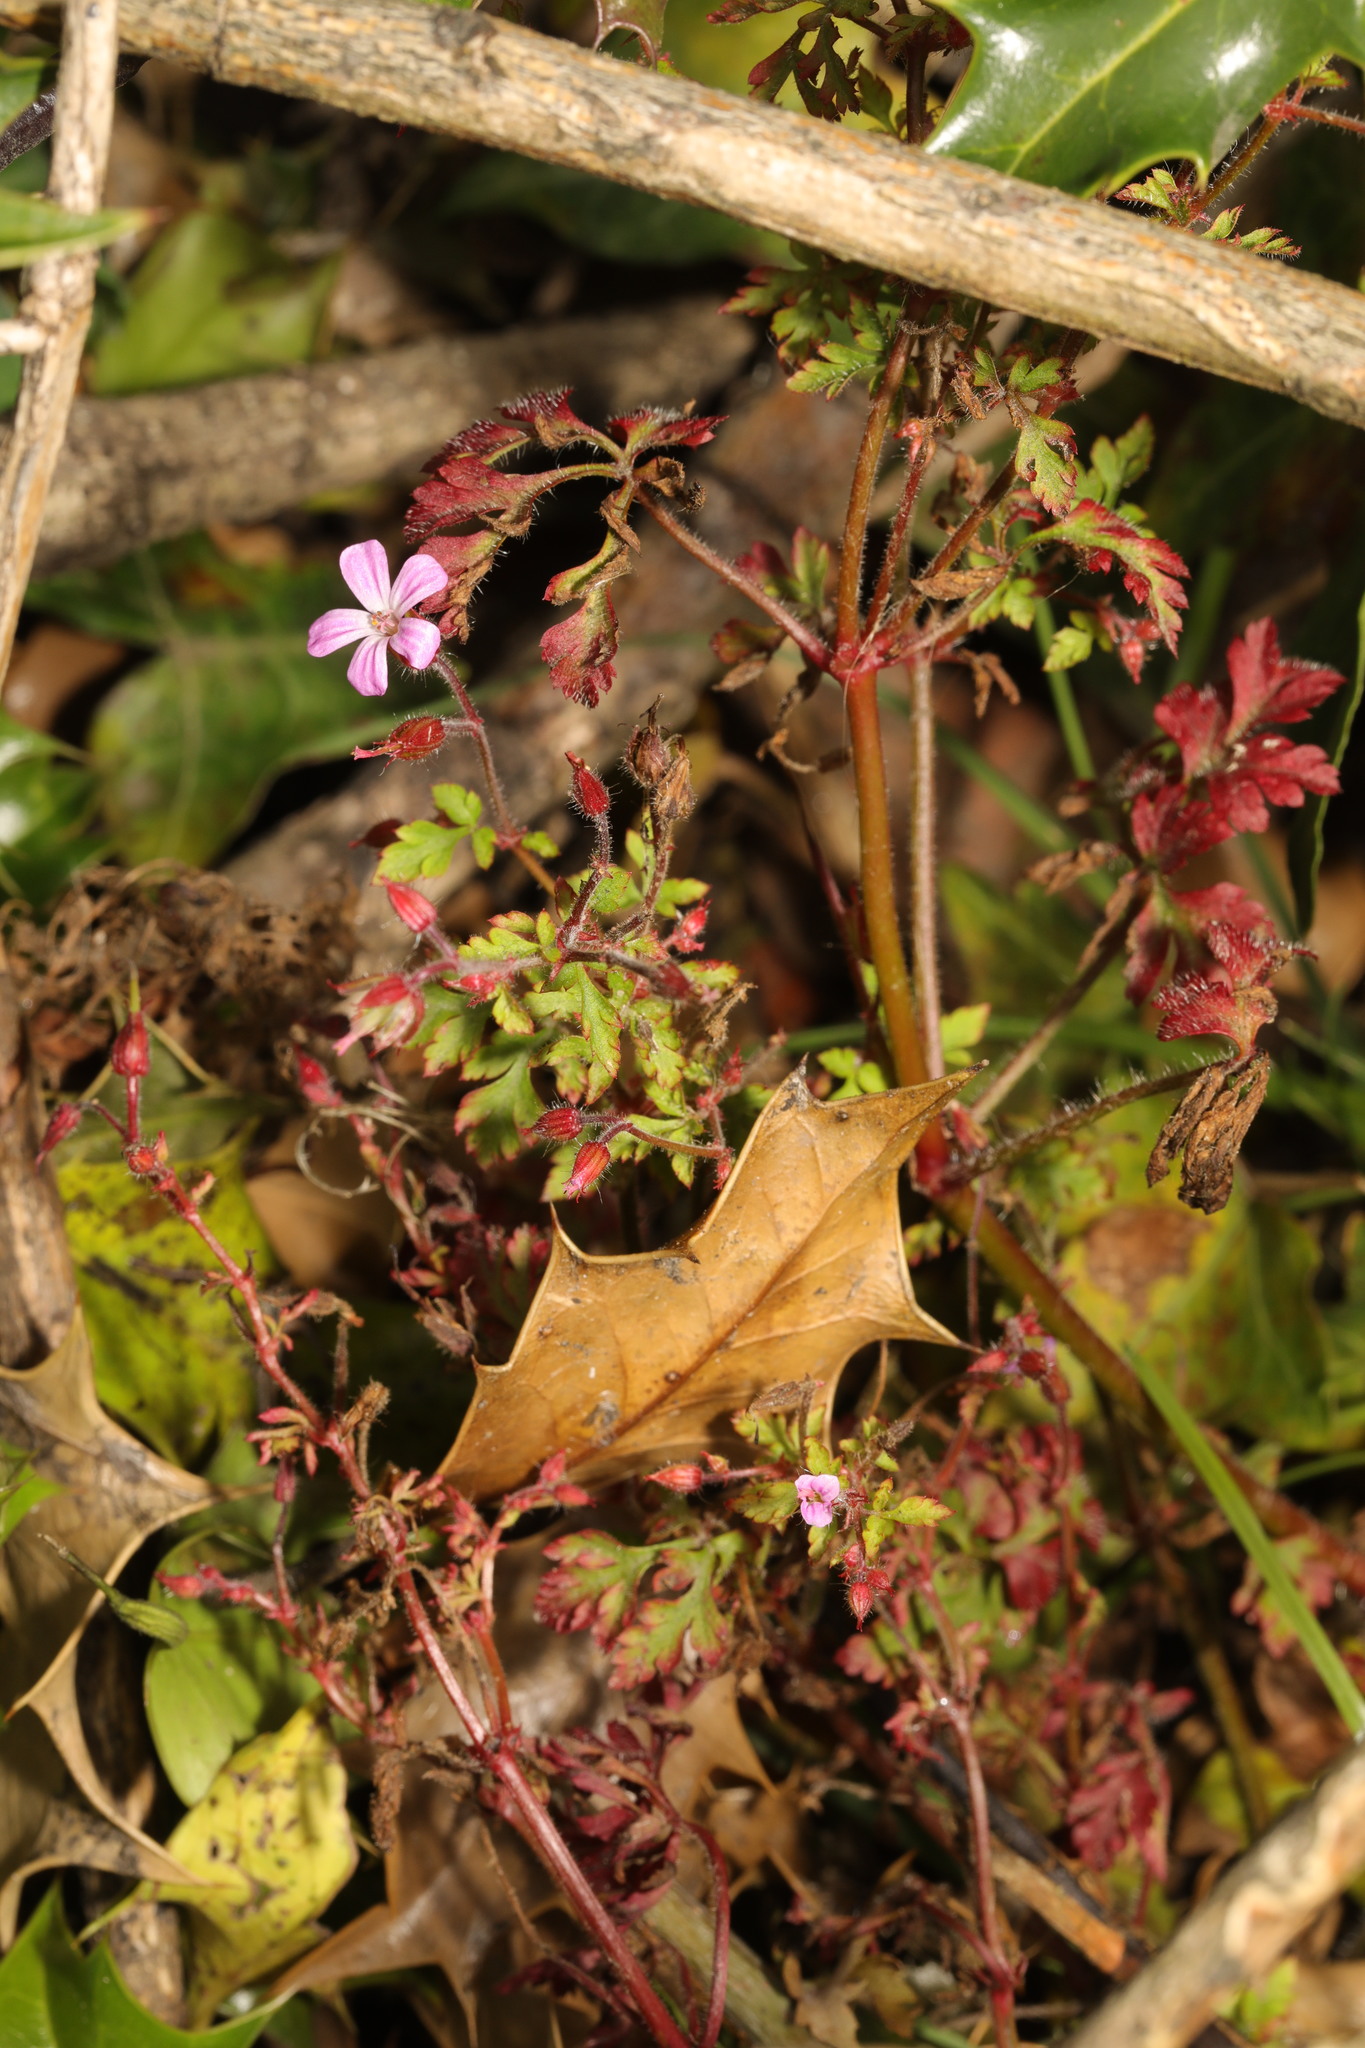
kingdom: Plantae
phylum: Tracheophyta
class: Magnoliopsida
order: Geraniales
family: Geraniaceae
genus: Geranium
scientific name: Geranium robertianum
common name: Herb-robert
